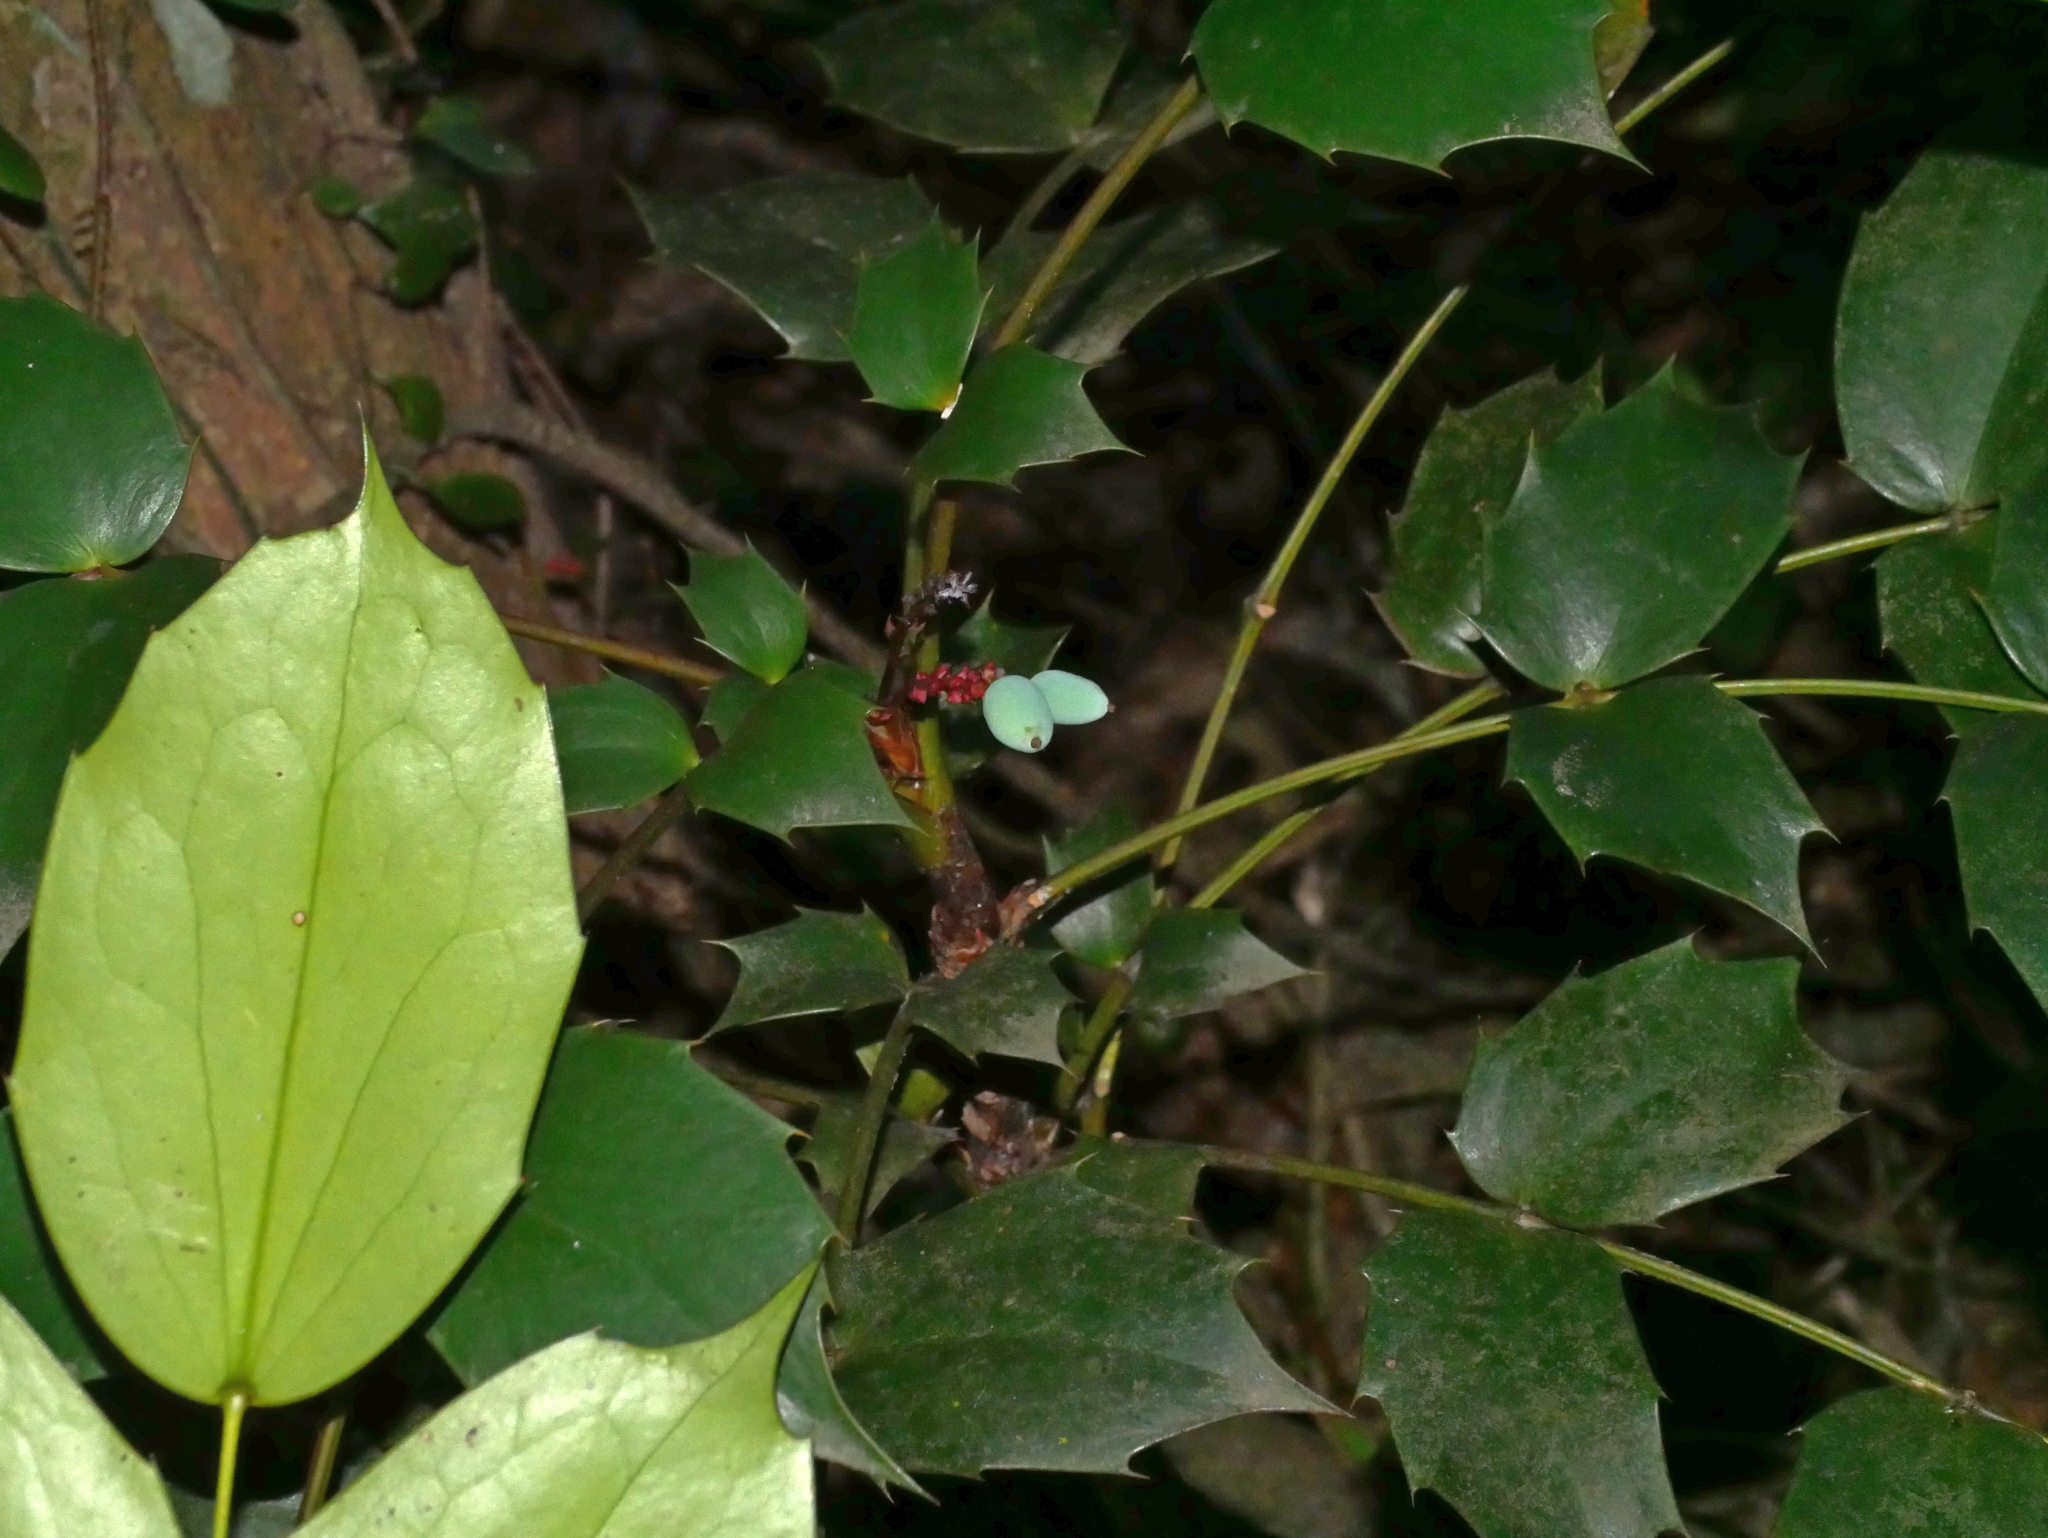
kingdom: Plantae
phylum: Tracheophyta
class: Magnoliopsida
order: Ranunculales
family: Berberidaceae
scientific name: Berberidaceae
